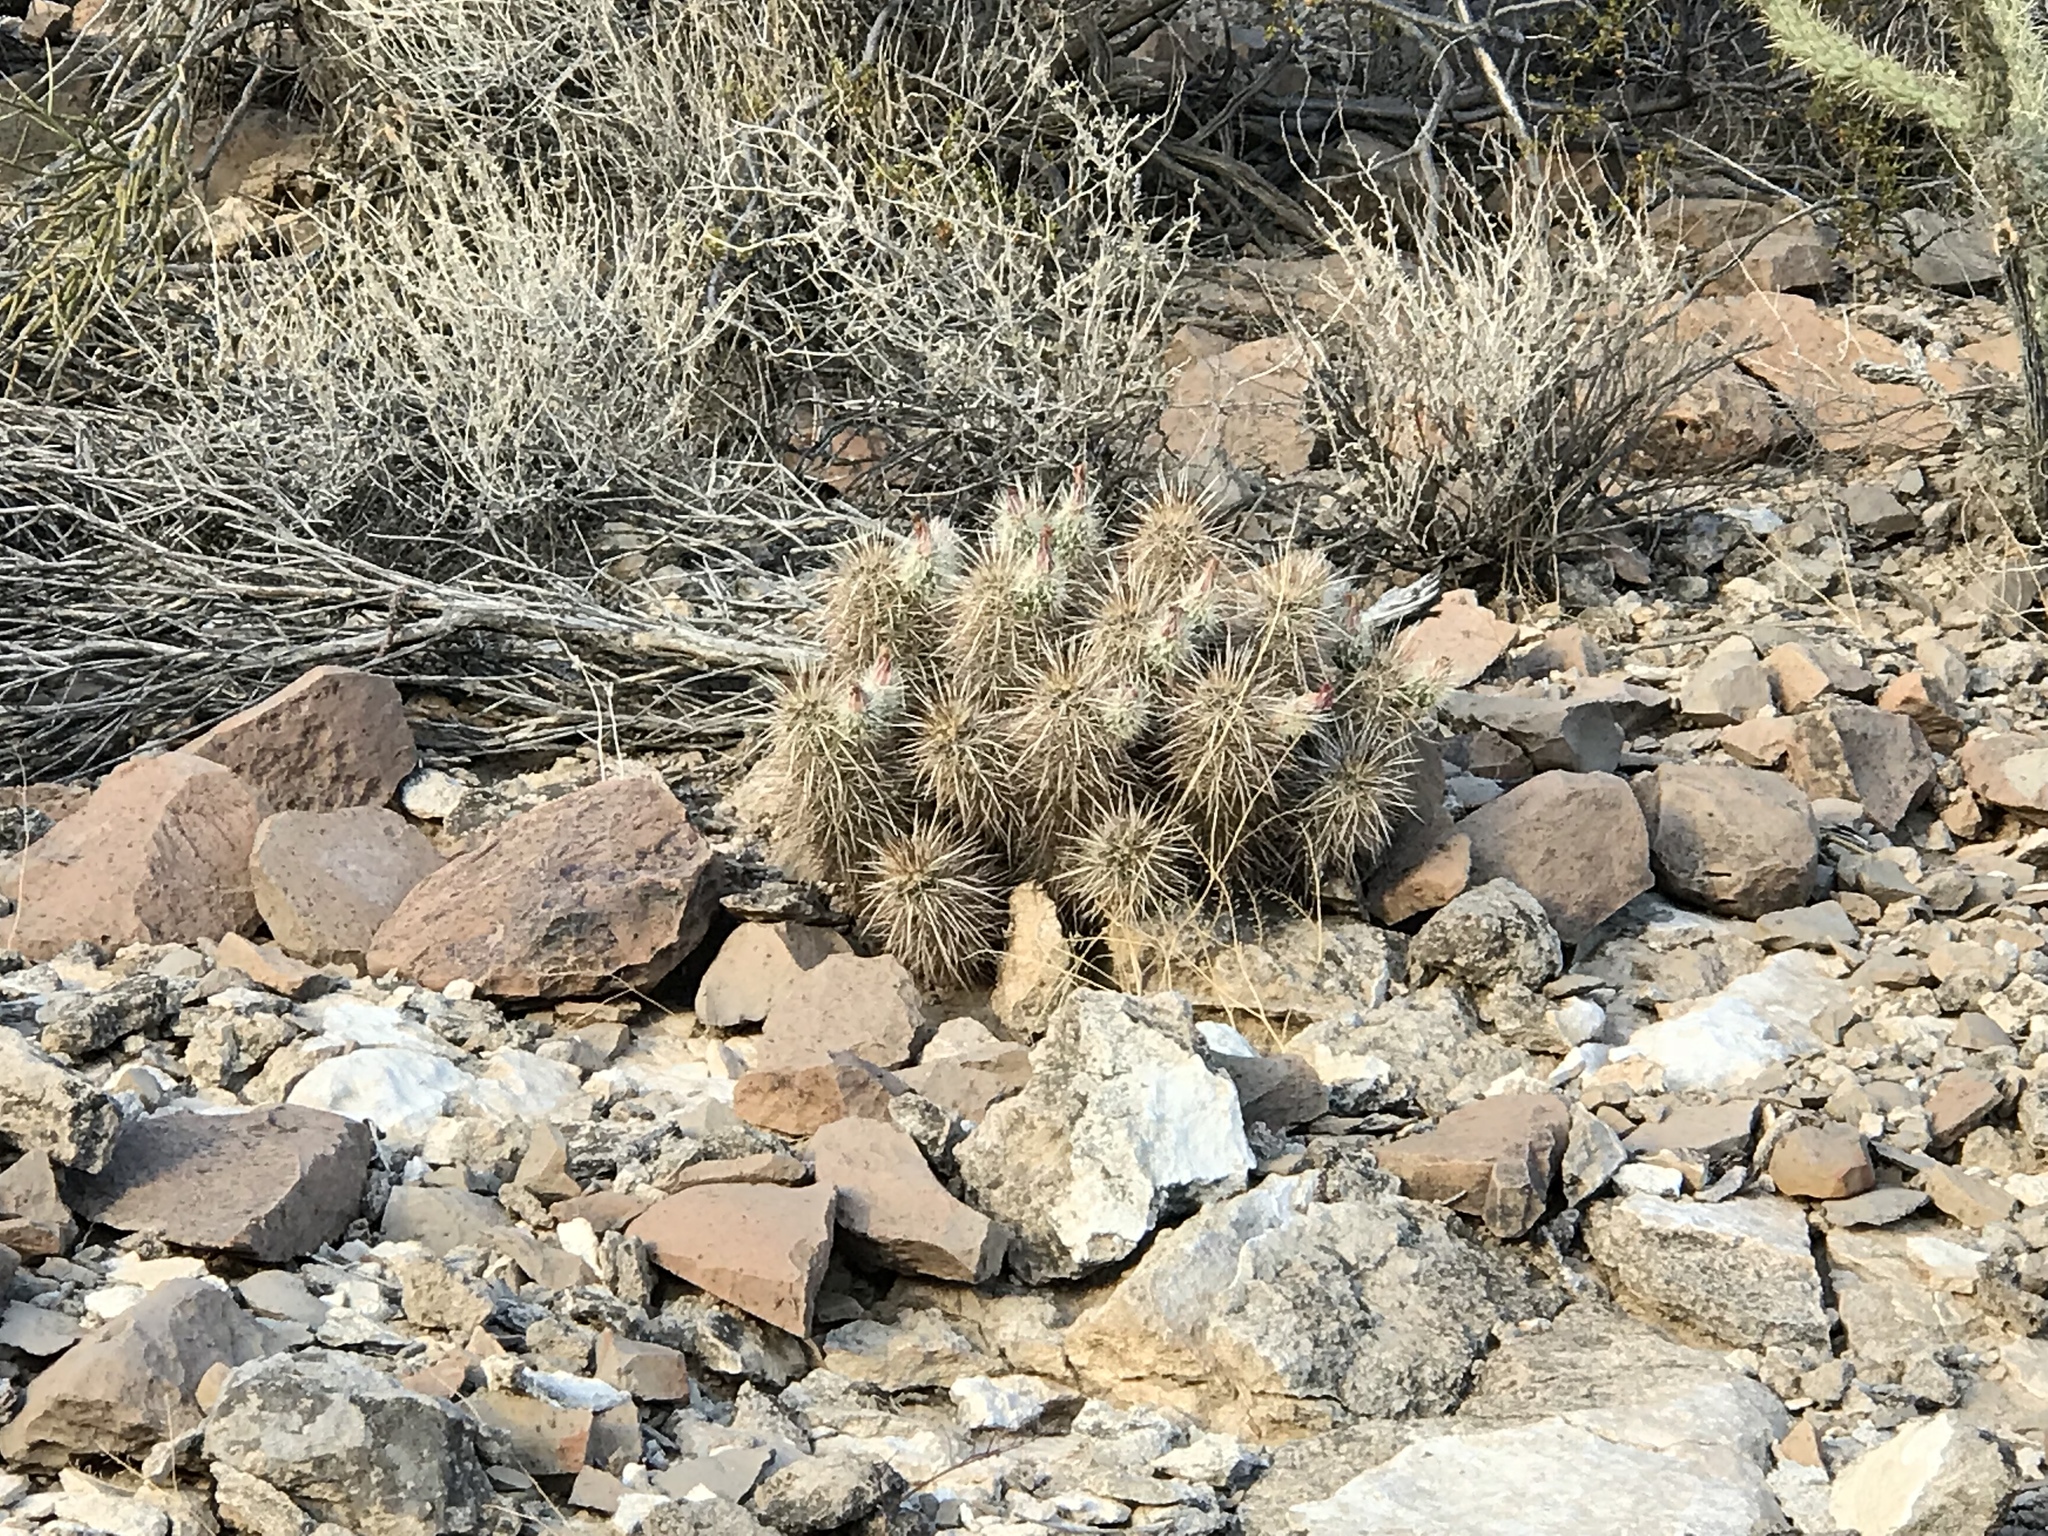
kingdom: Plantae
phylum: Tracheophyta
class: Magnoliopsida
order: Caryophyllales
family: Cactaceae
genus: Echinocereus
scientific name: Echinocereus engelmannii
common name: Engelmann's hedgehog cactus
